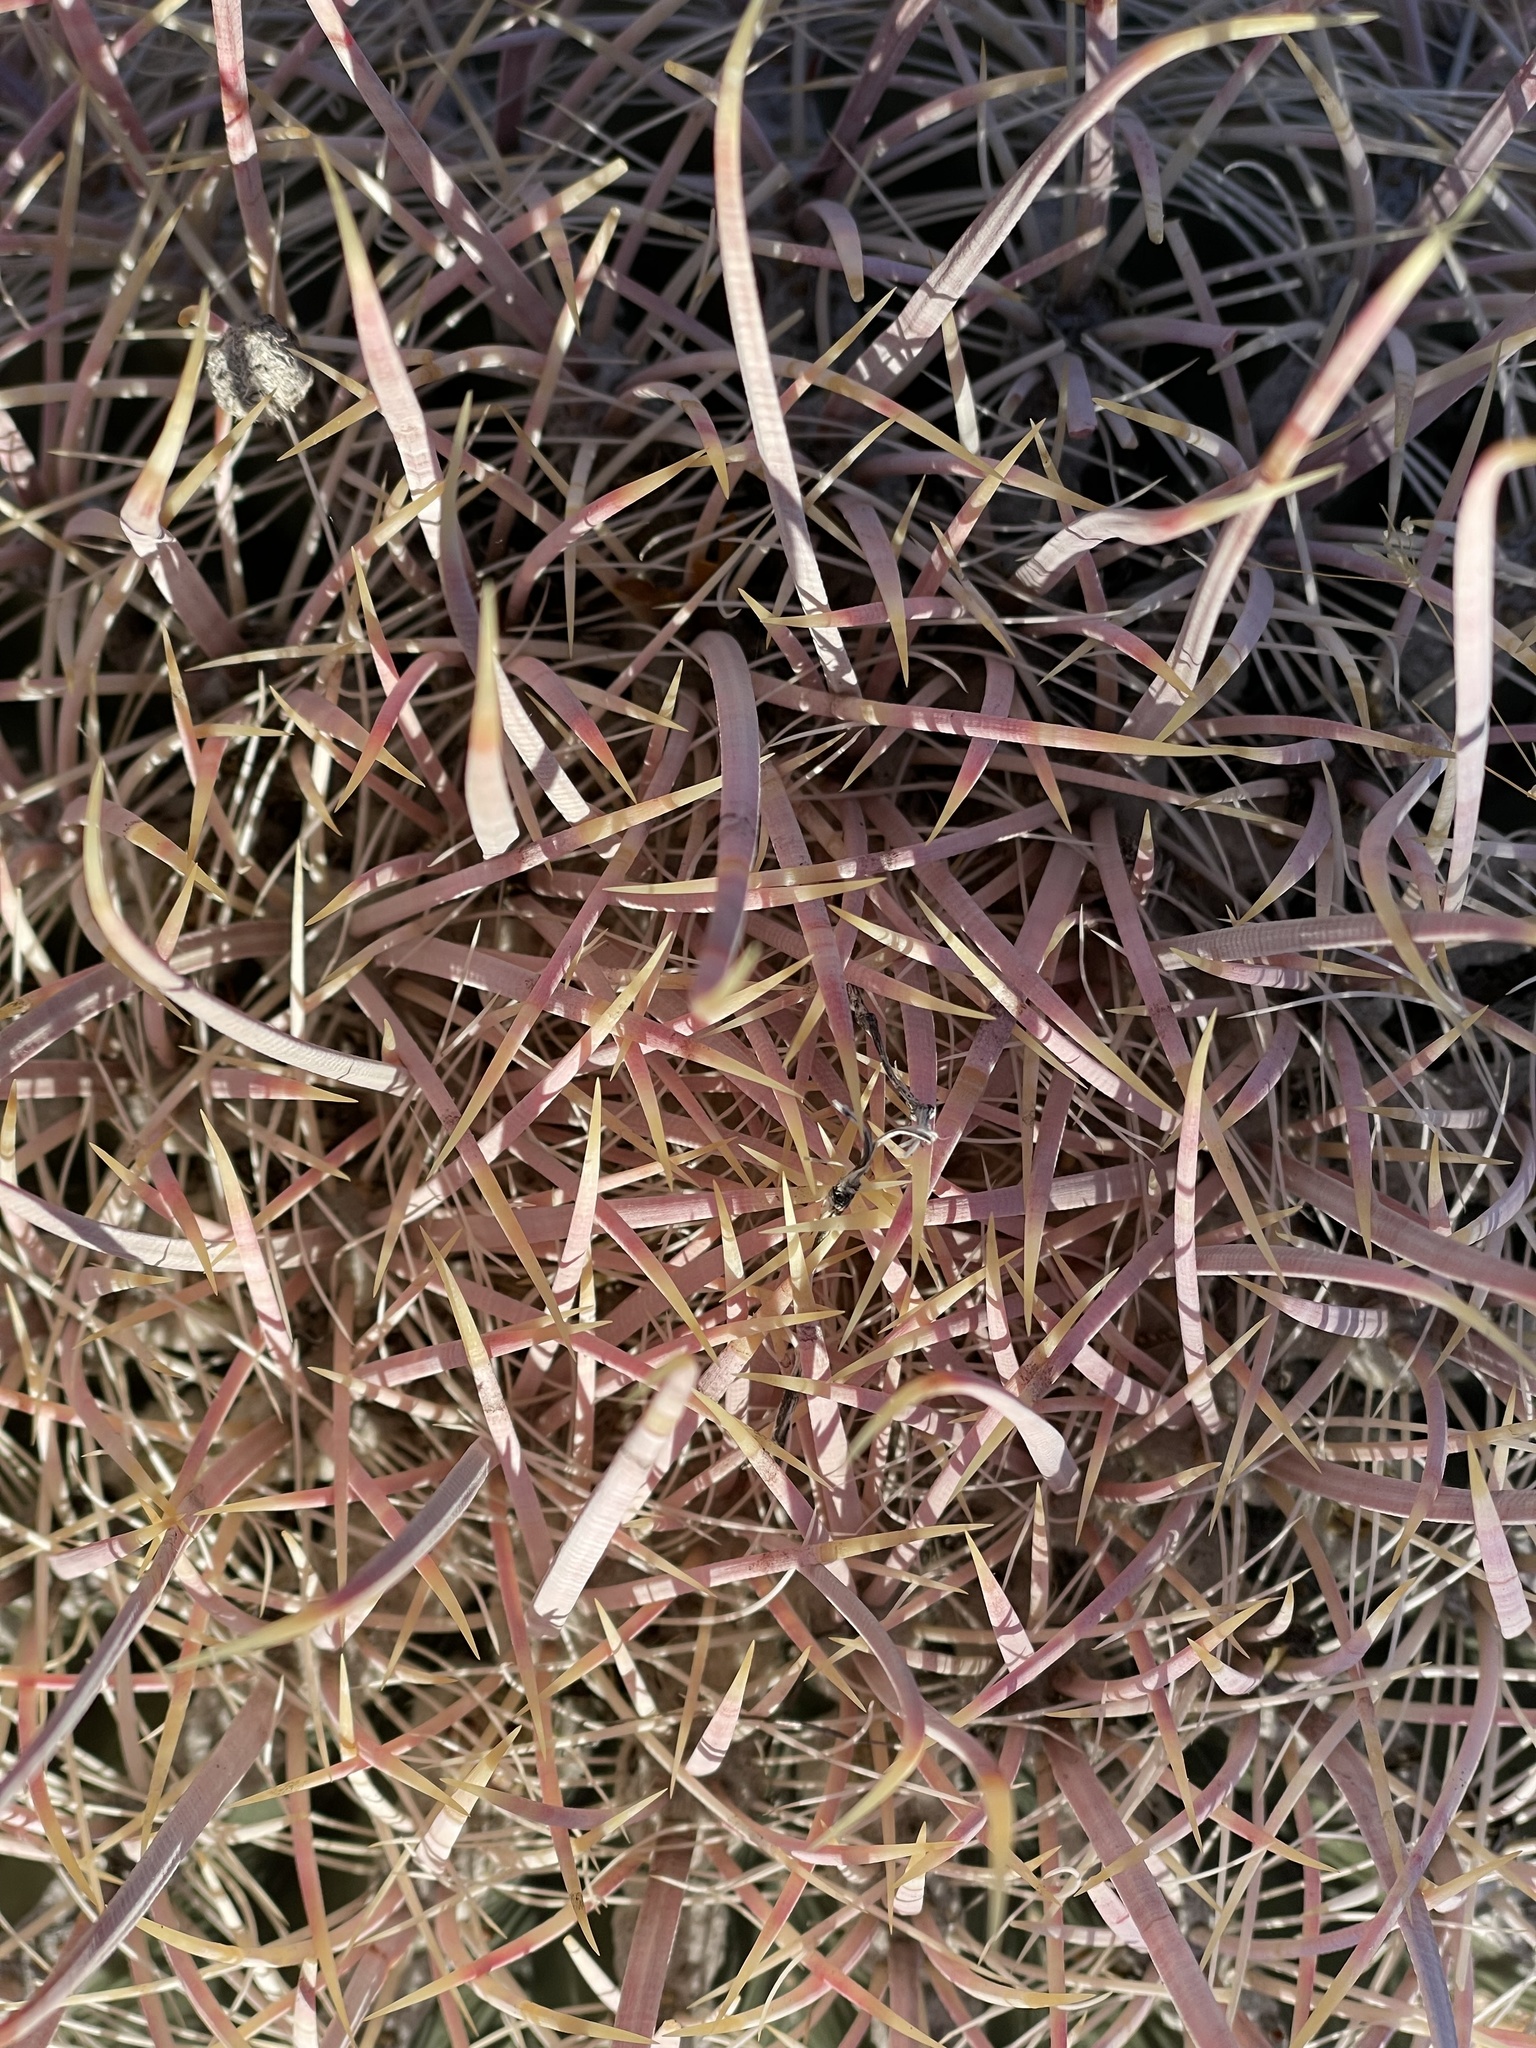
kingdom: Plantae
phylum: Tracheophyta
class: Magnoliopsida
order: Caryophyllales
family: Cactaceae
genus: Ferocactus
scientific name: Ferocactus cylindraceus
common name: California barrel cactus
